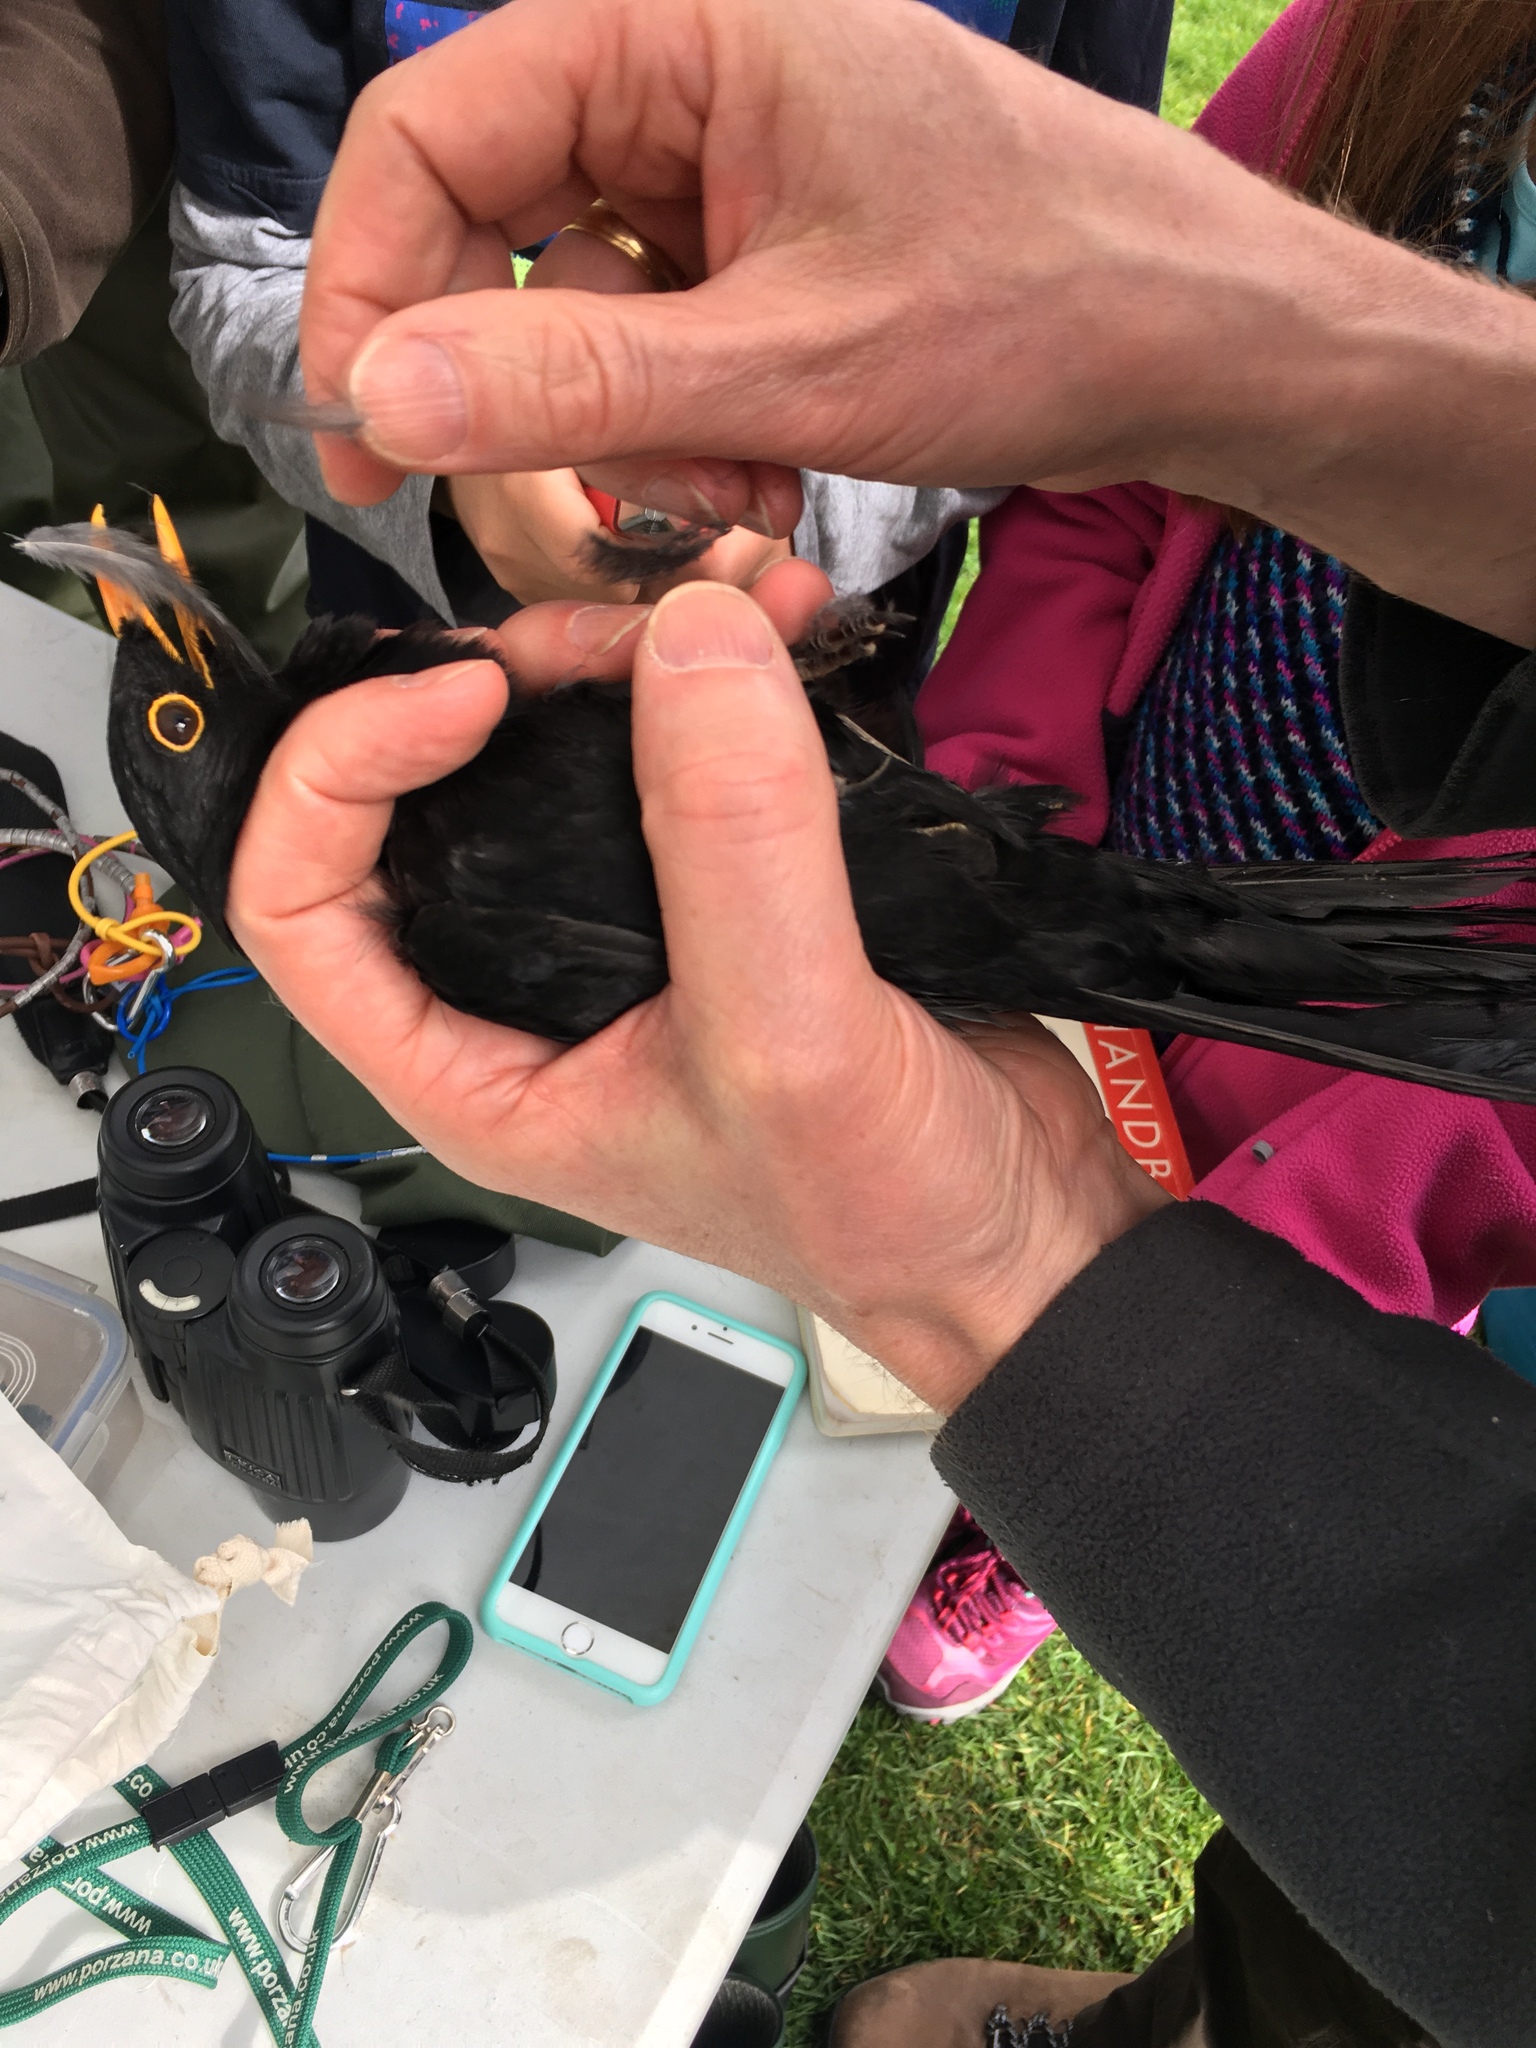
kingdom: Animalia
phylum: Chordata
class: Aves
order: Passeriformes
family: Turdidae
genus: Turdus
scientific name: Turdus merula
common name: Common blackbird
